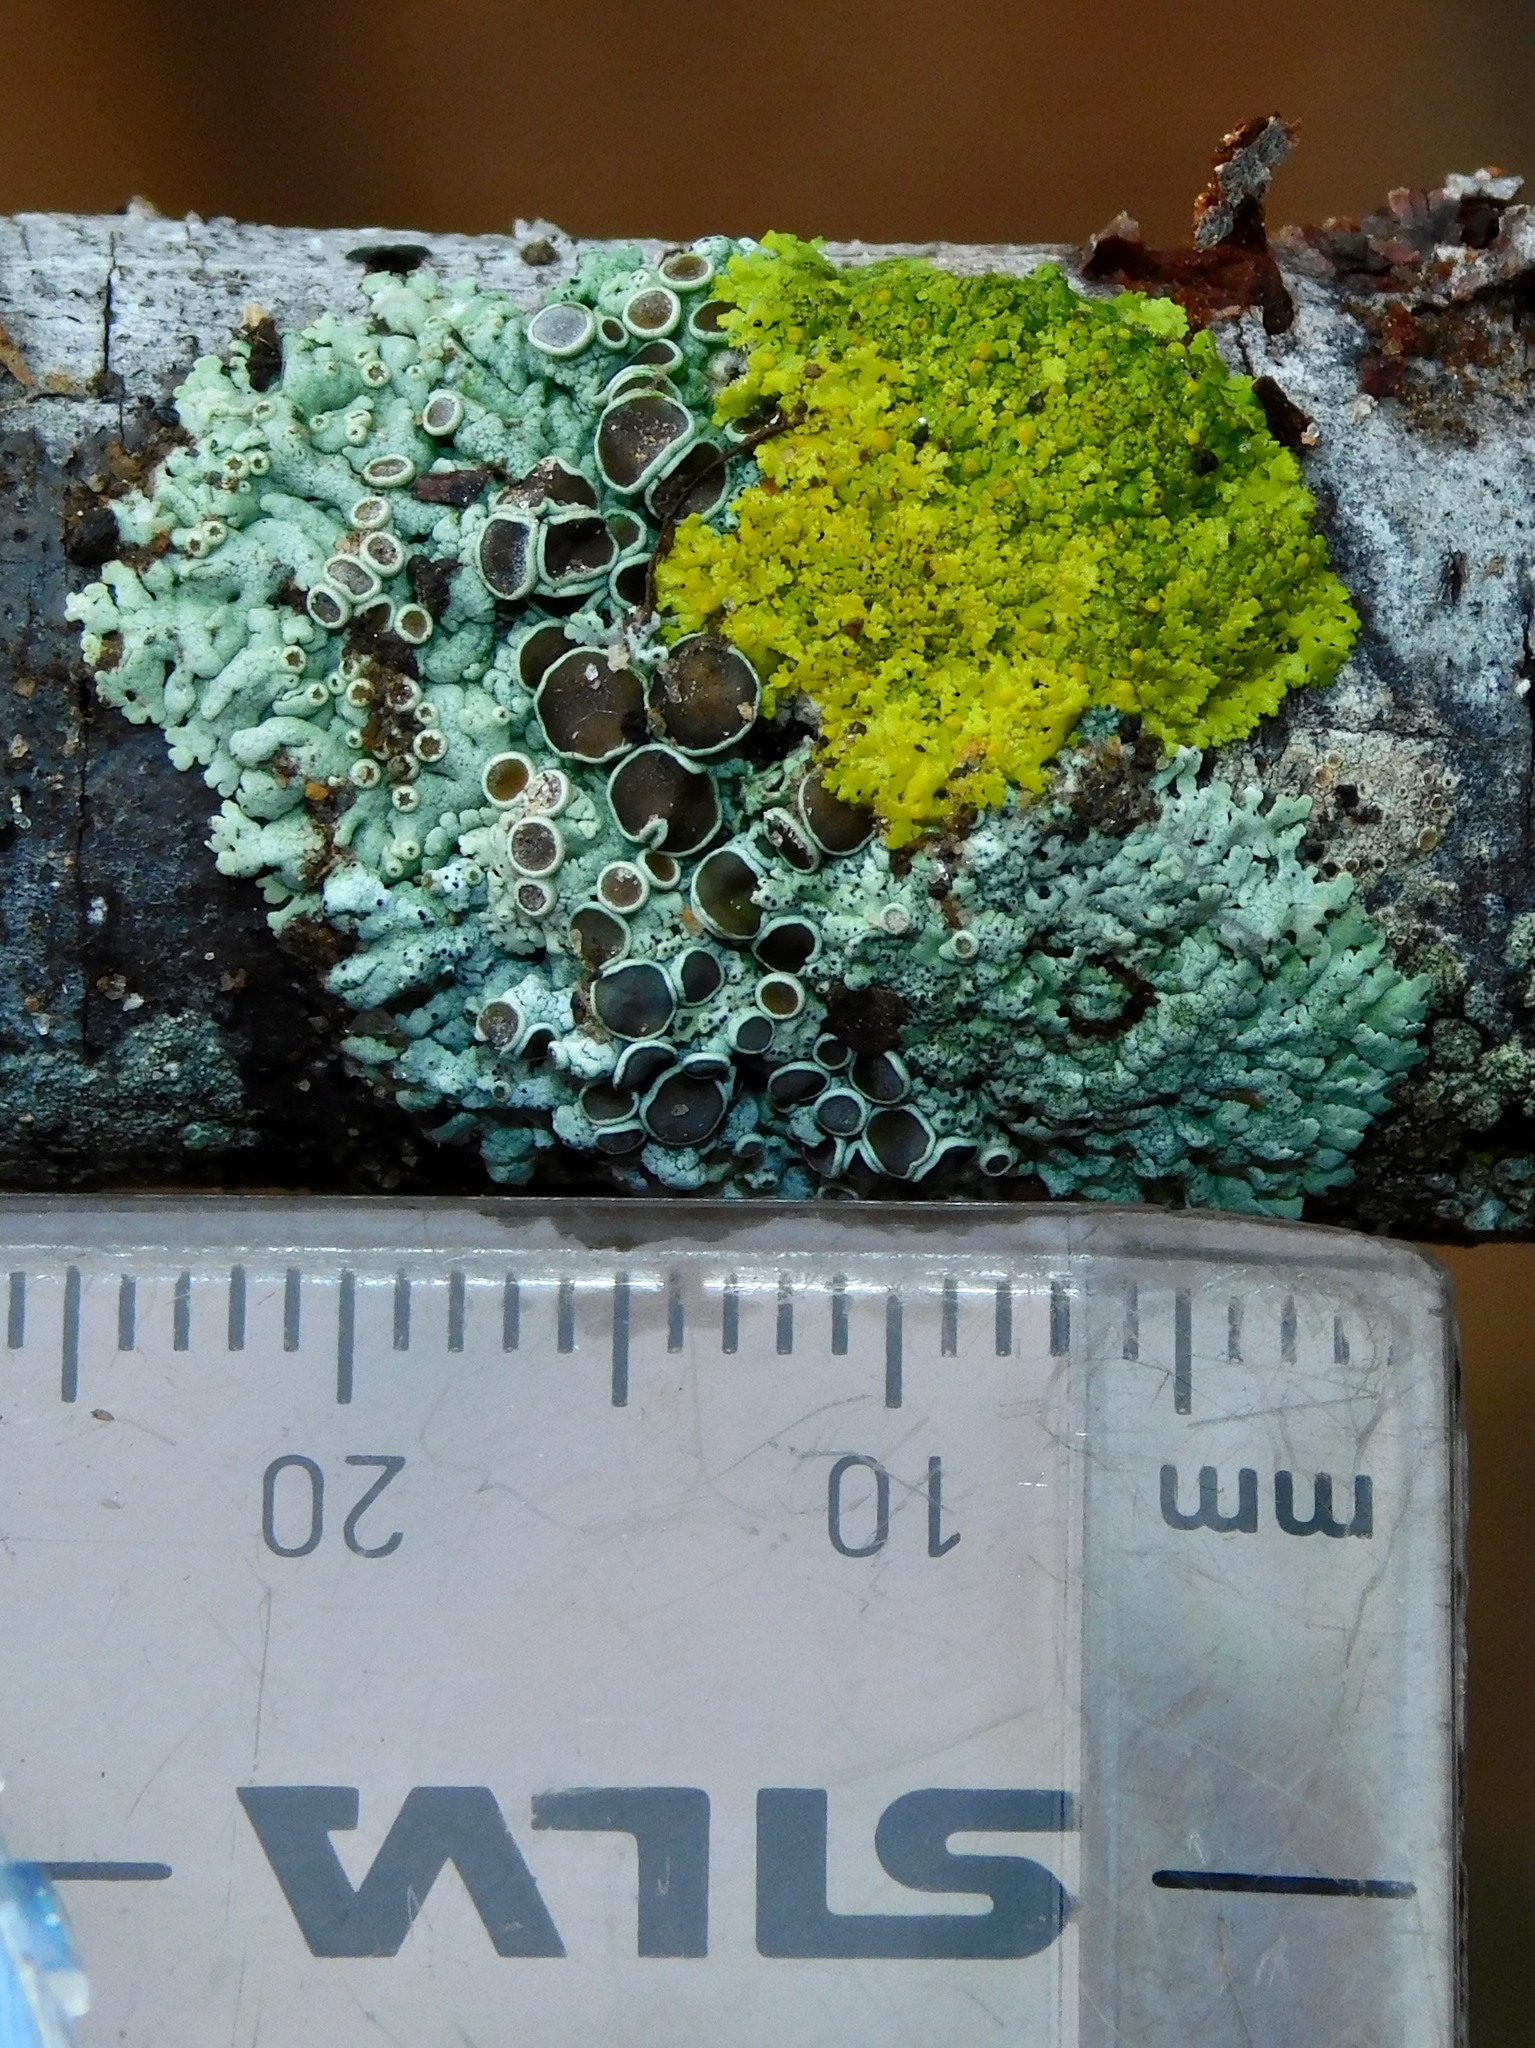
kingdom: Fungi
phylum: Ascomycota
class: Candelariomycetes
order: Candelariales
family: Candelariaceae
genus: Candelaria
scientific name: Candelaria concolor
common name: Candleflame lichen
